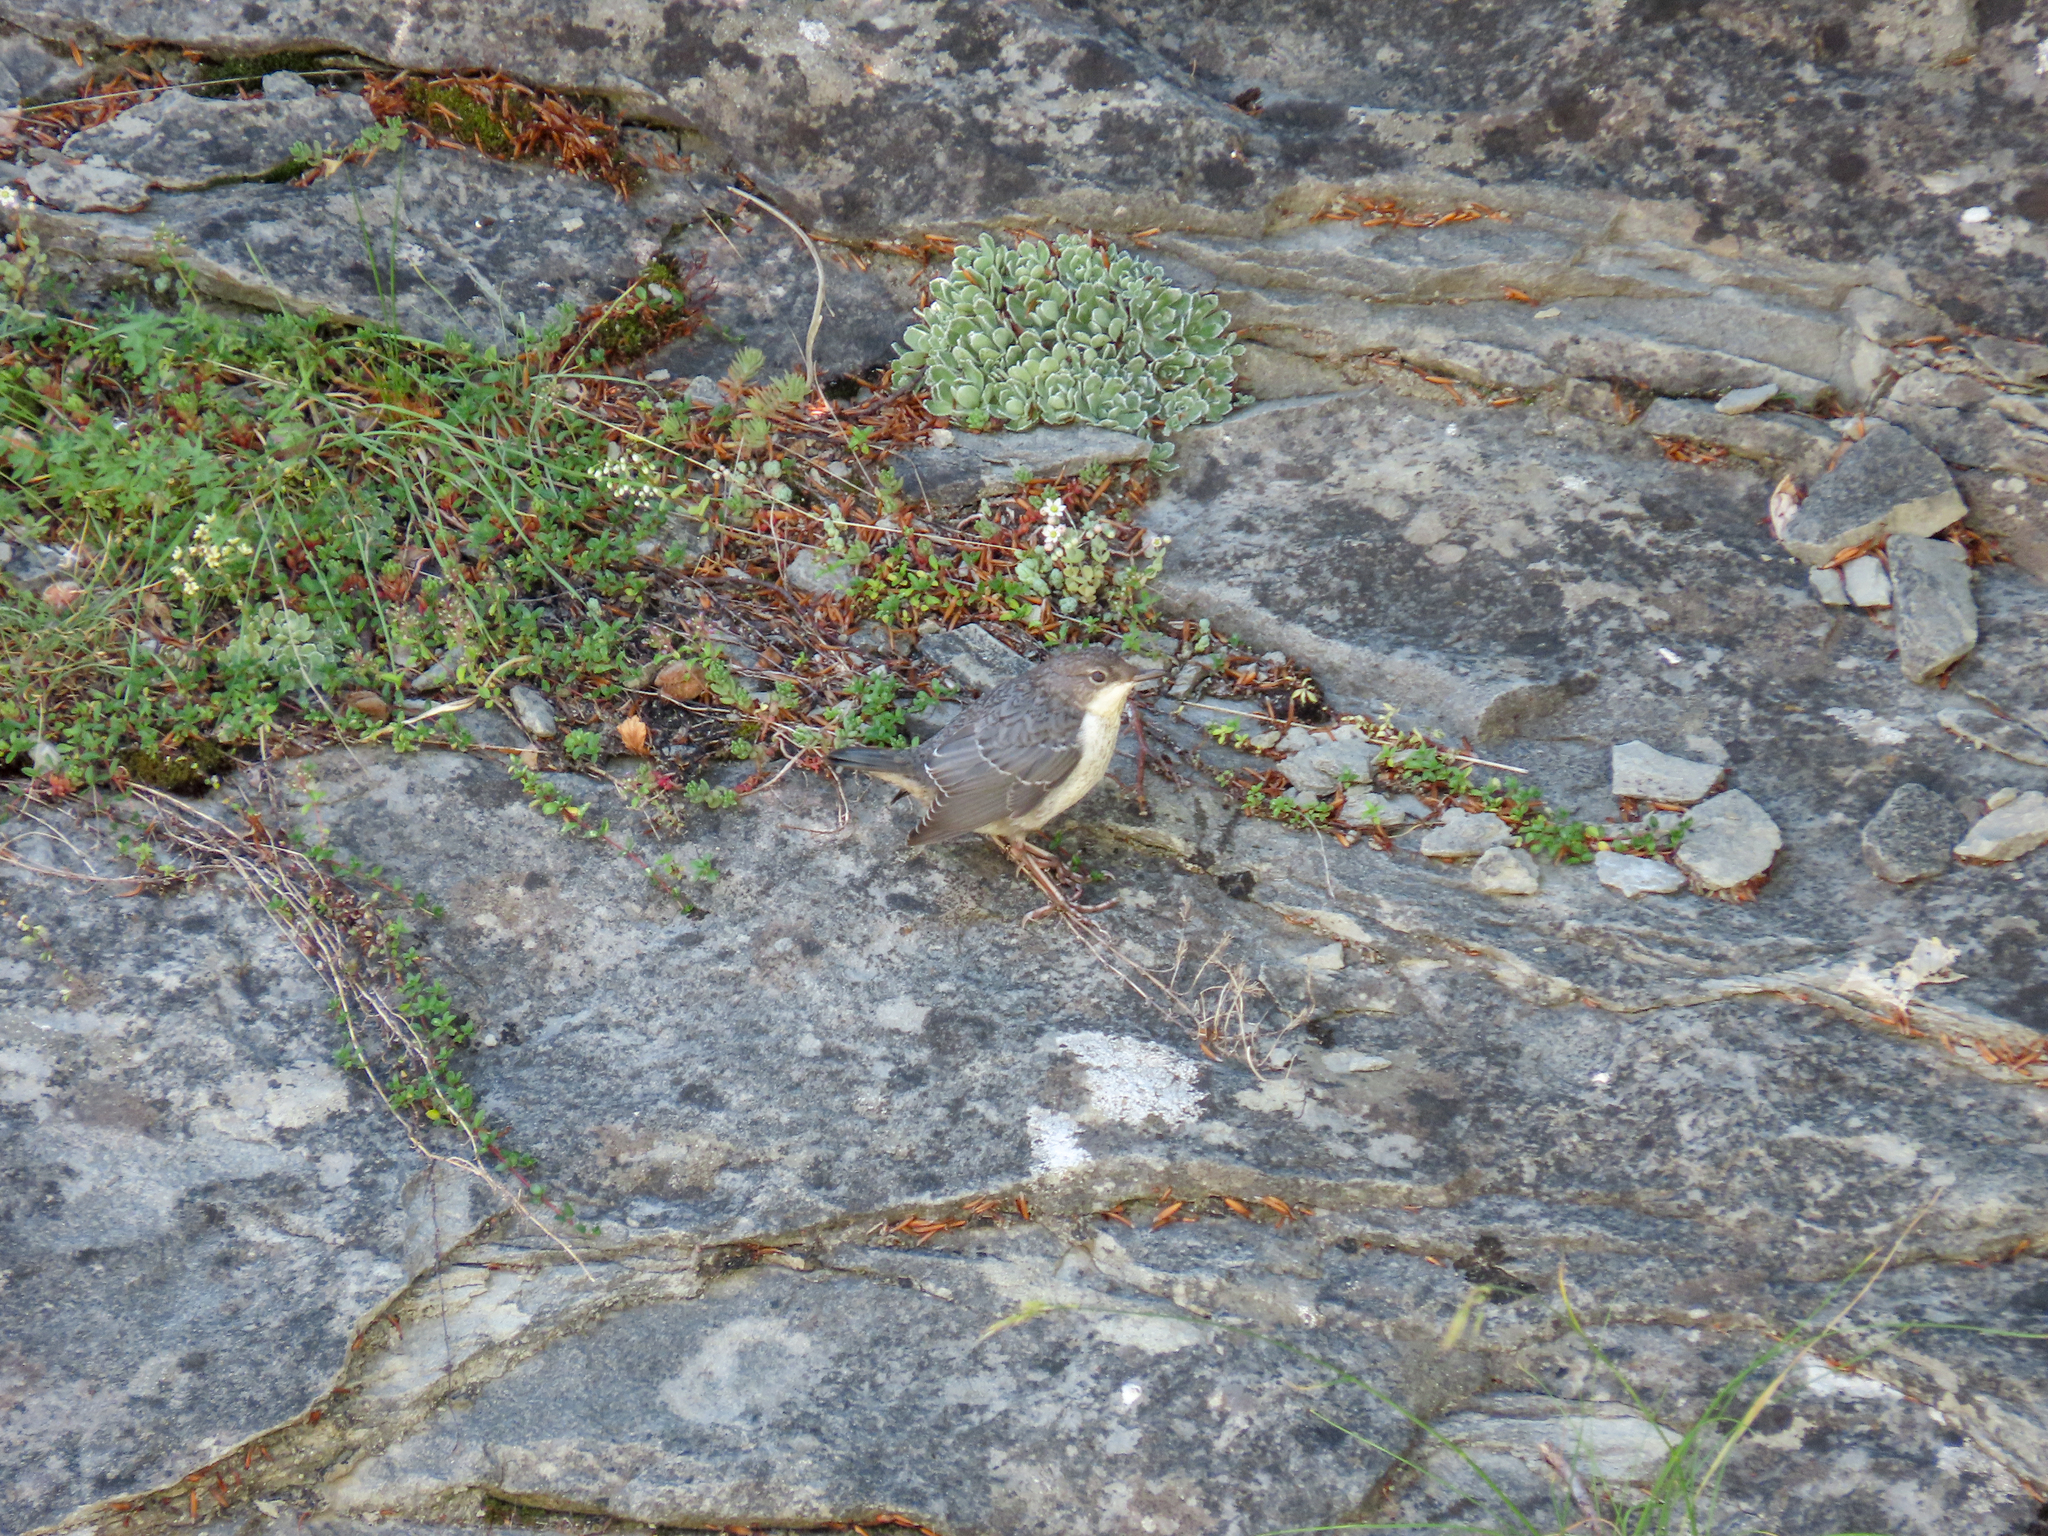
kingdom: Animalia
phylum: Chordata
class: Aves
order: Passeriformes
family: Cinclidae
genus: Cinclus
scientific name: Cinclus cinclus
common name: White-throated dipper
